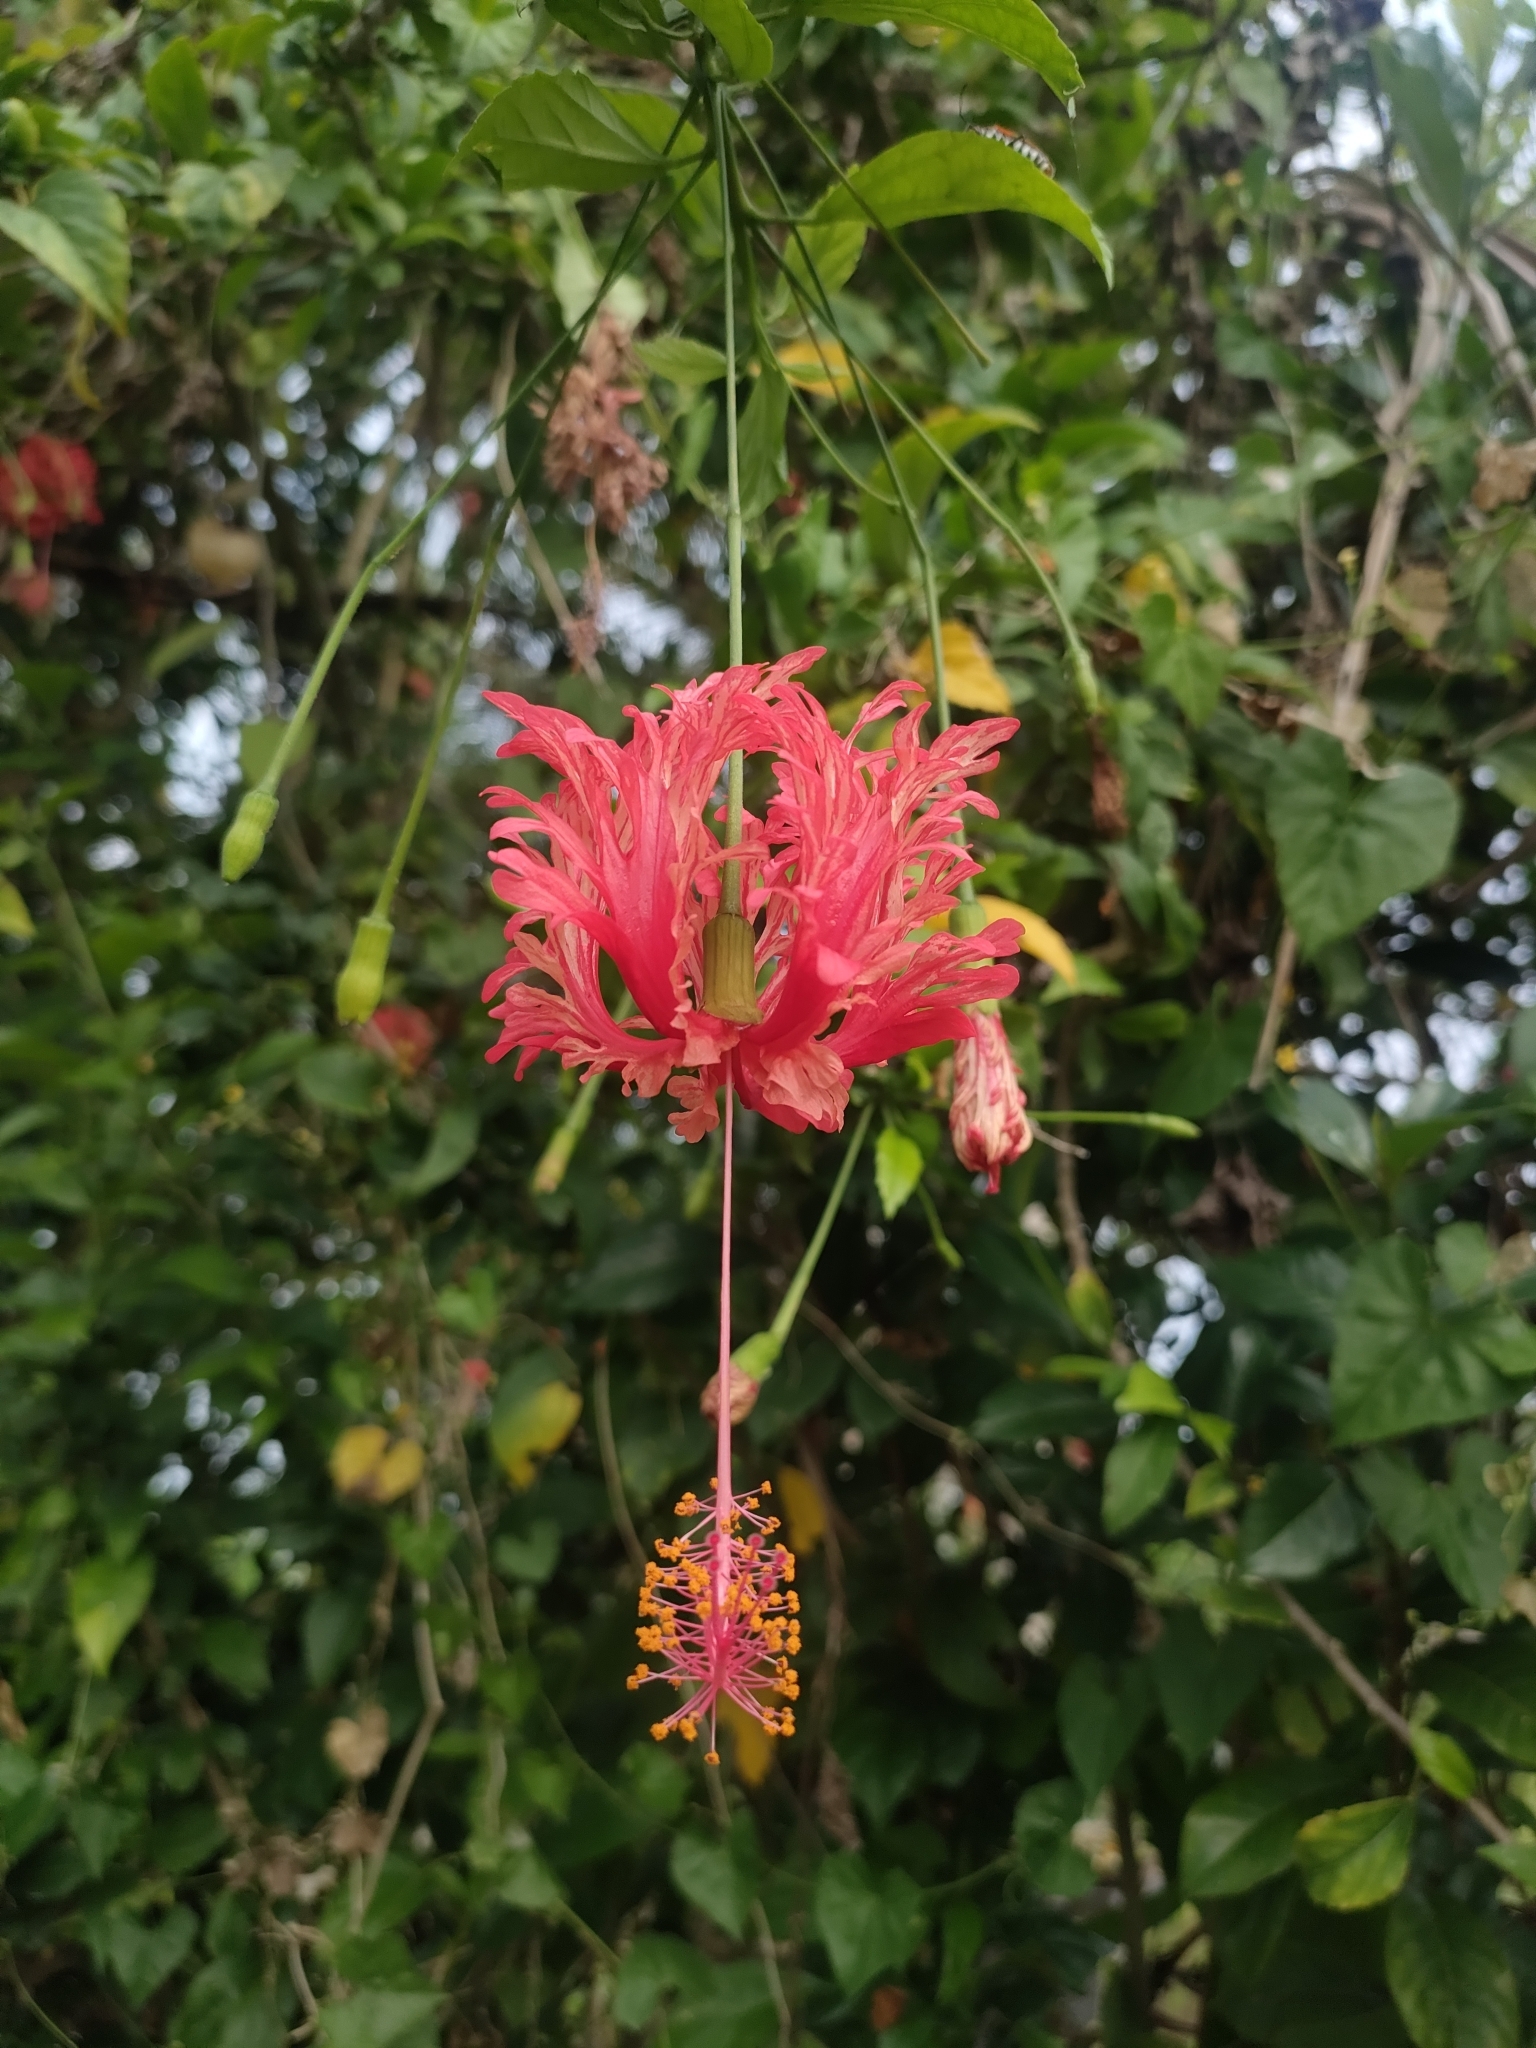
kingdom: Plantae
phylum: Tracheophyta
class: Magnoliopsida
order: Malvales
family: Malvaceae
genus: Hibiscus
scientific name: Hibiscus schizopetalus
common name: Fringed rosemallow
